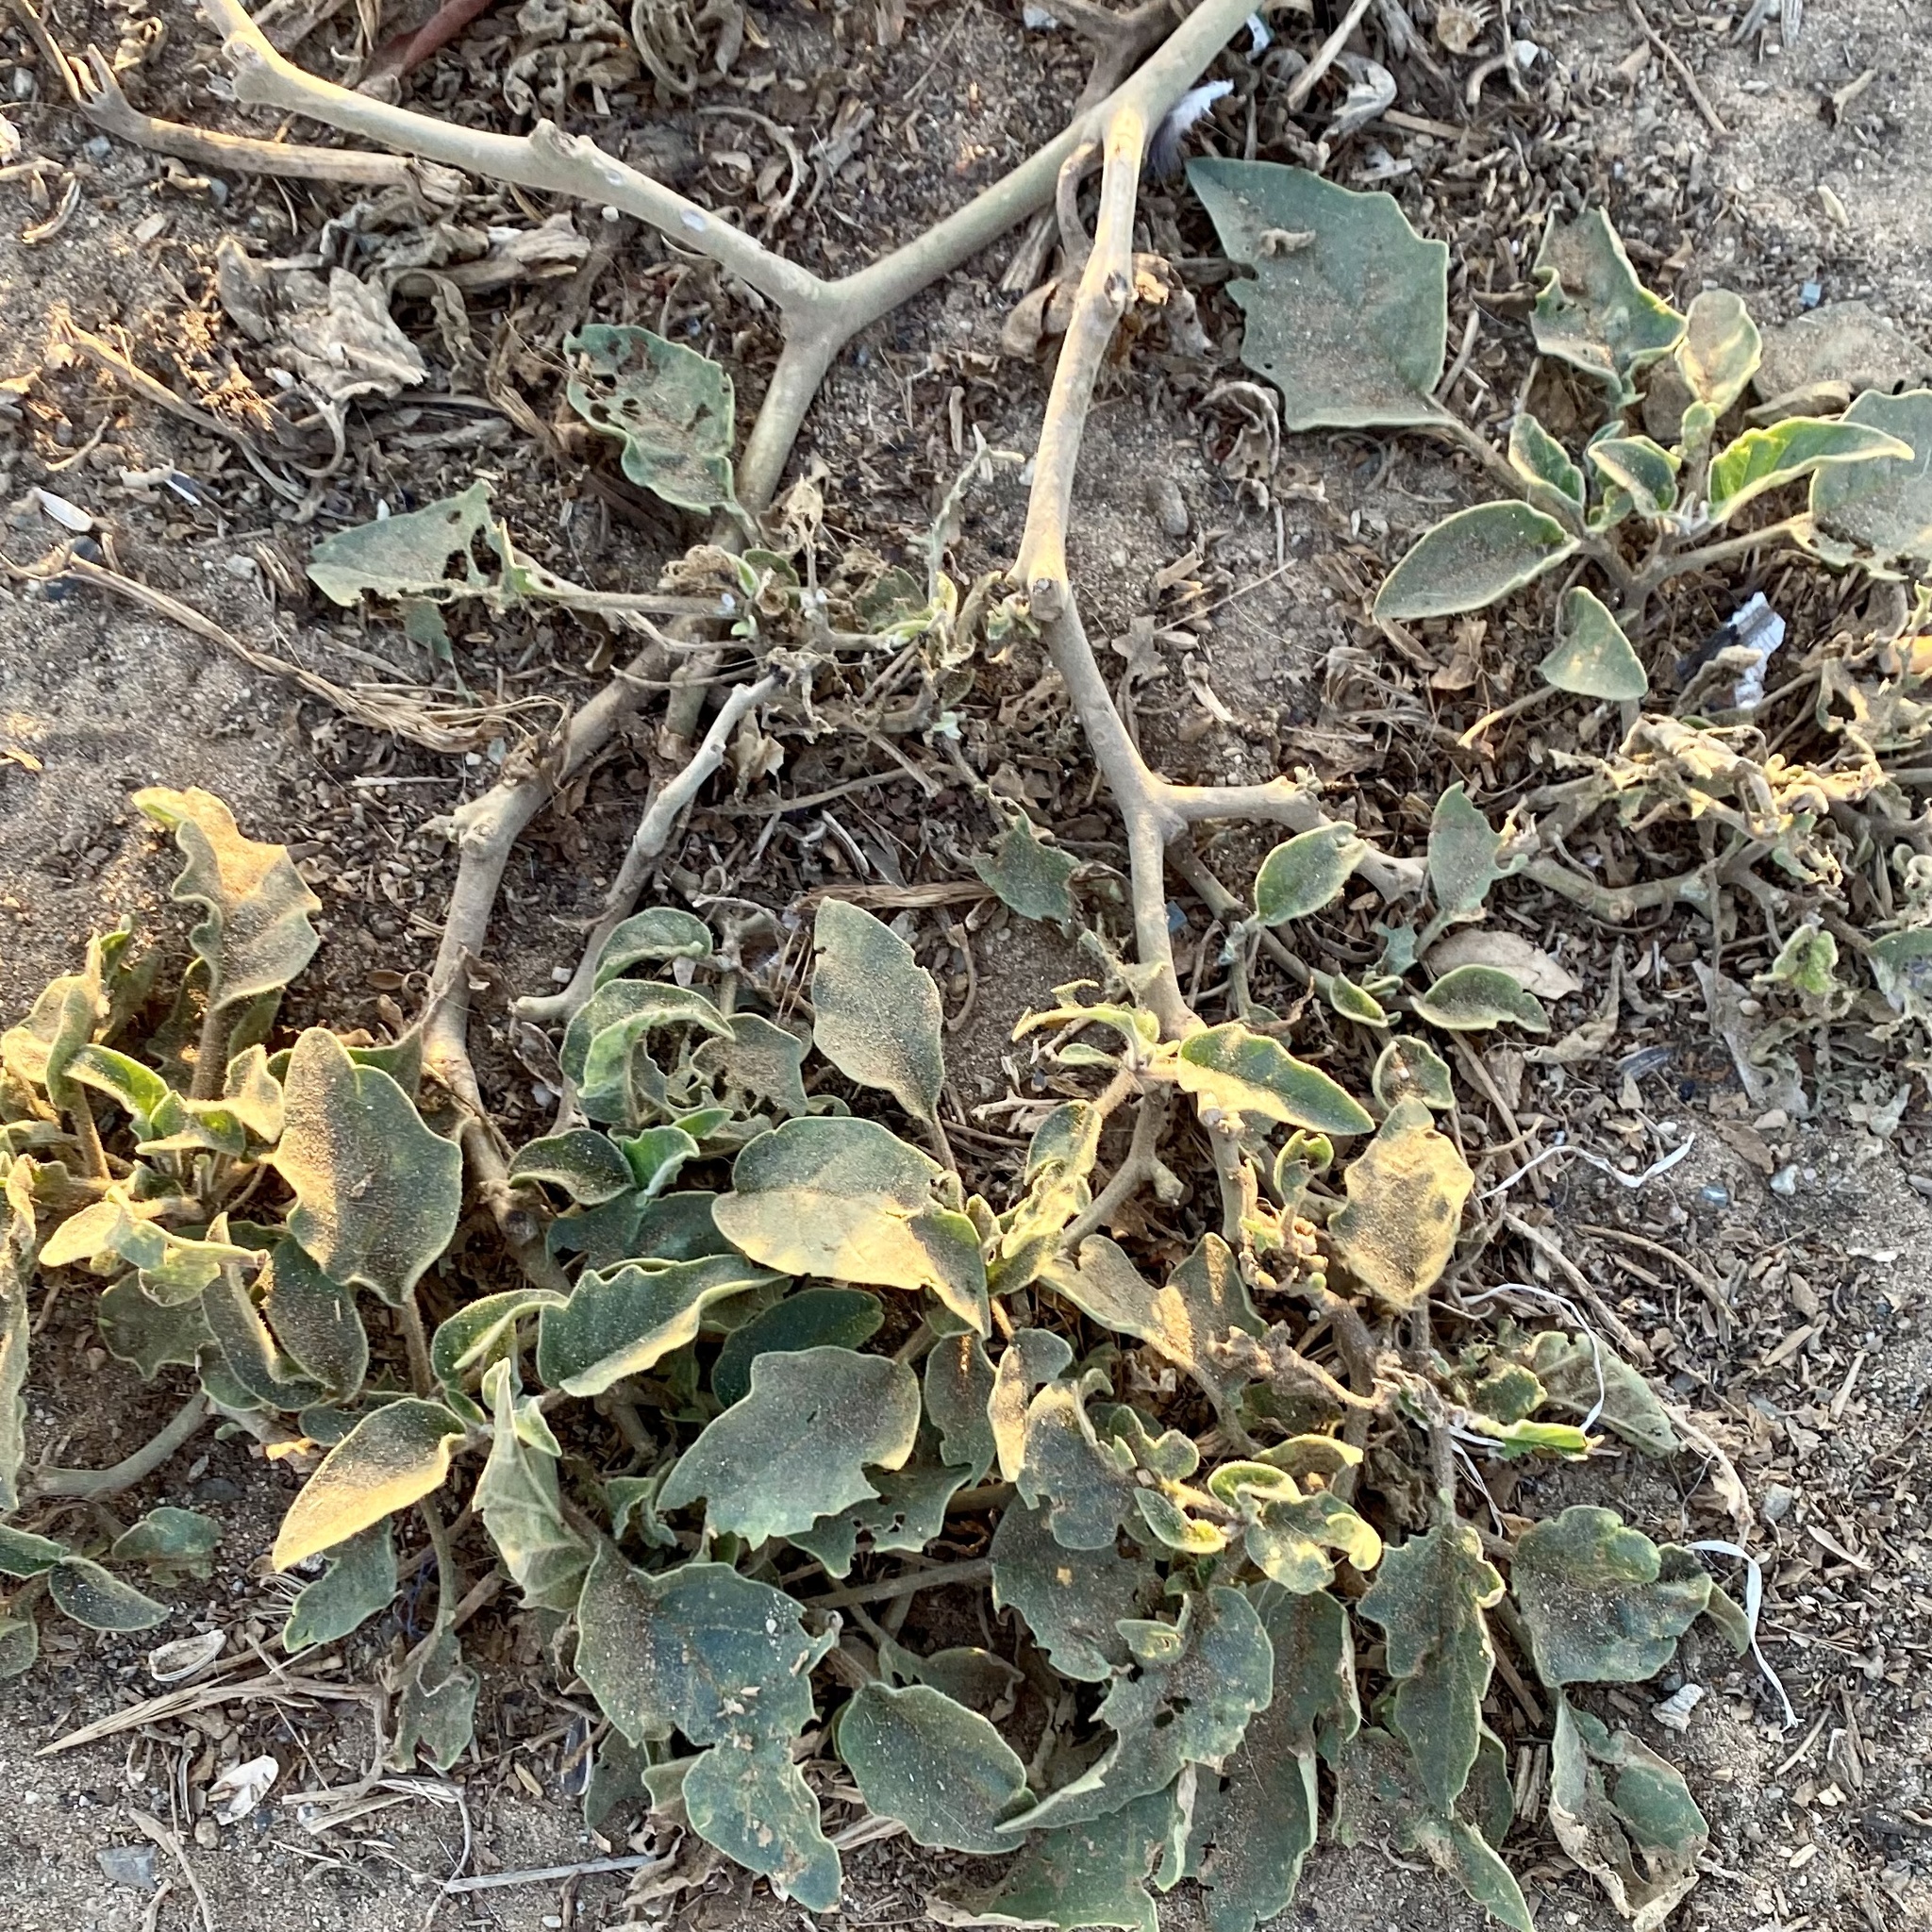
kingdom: Plantae
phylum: Tracheophyta
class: Magnoliopsida
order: Solanales
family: Solanaceae
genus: Datura
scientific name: Datura wrightii
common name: Sacred thorn-apple
